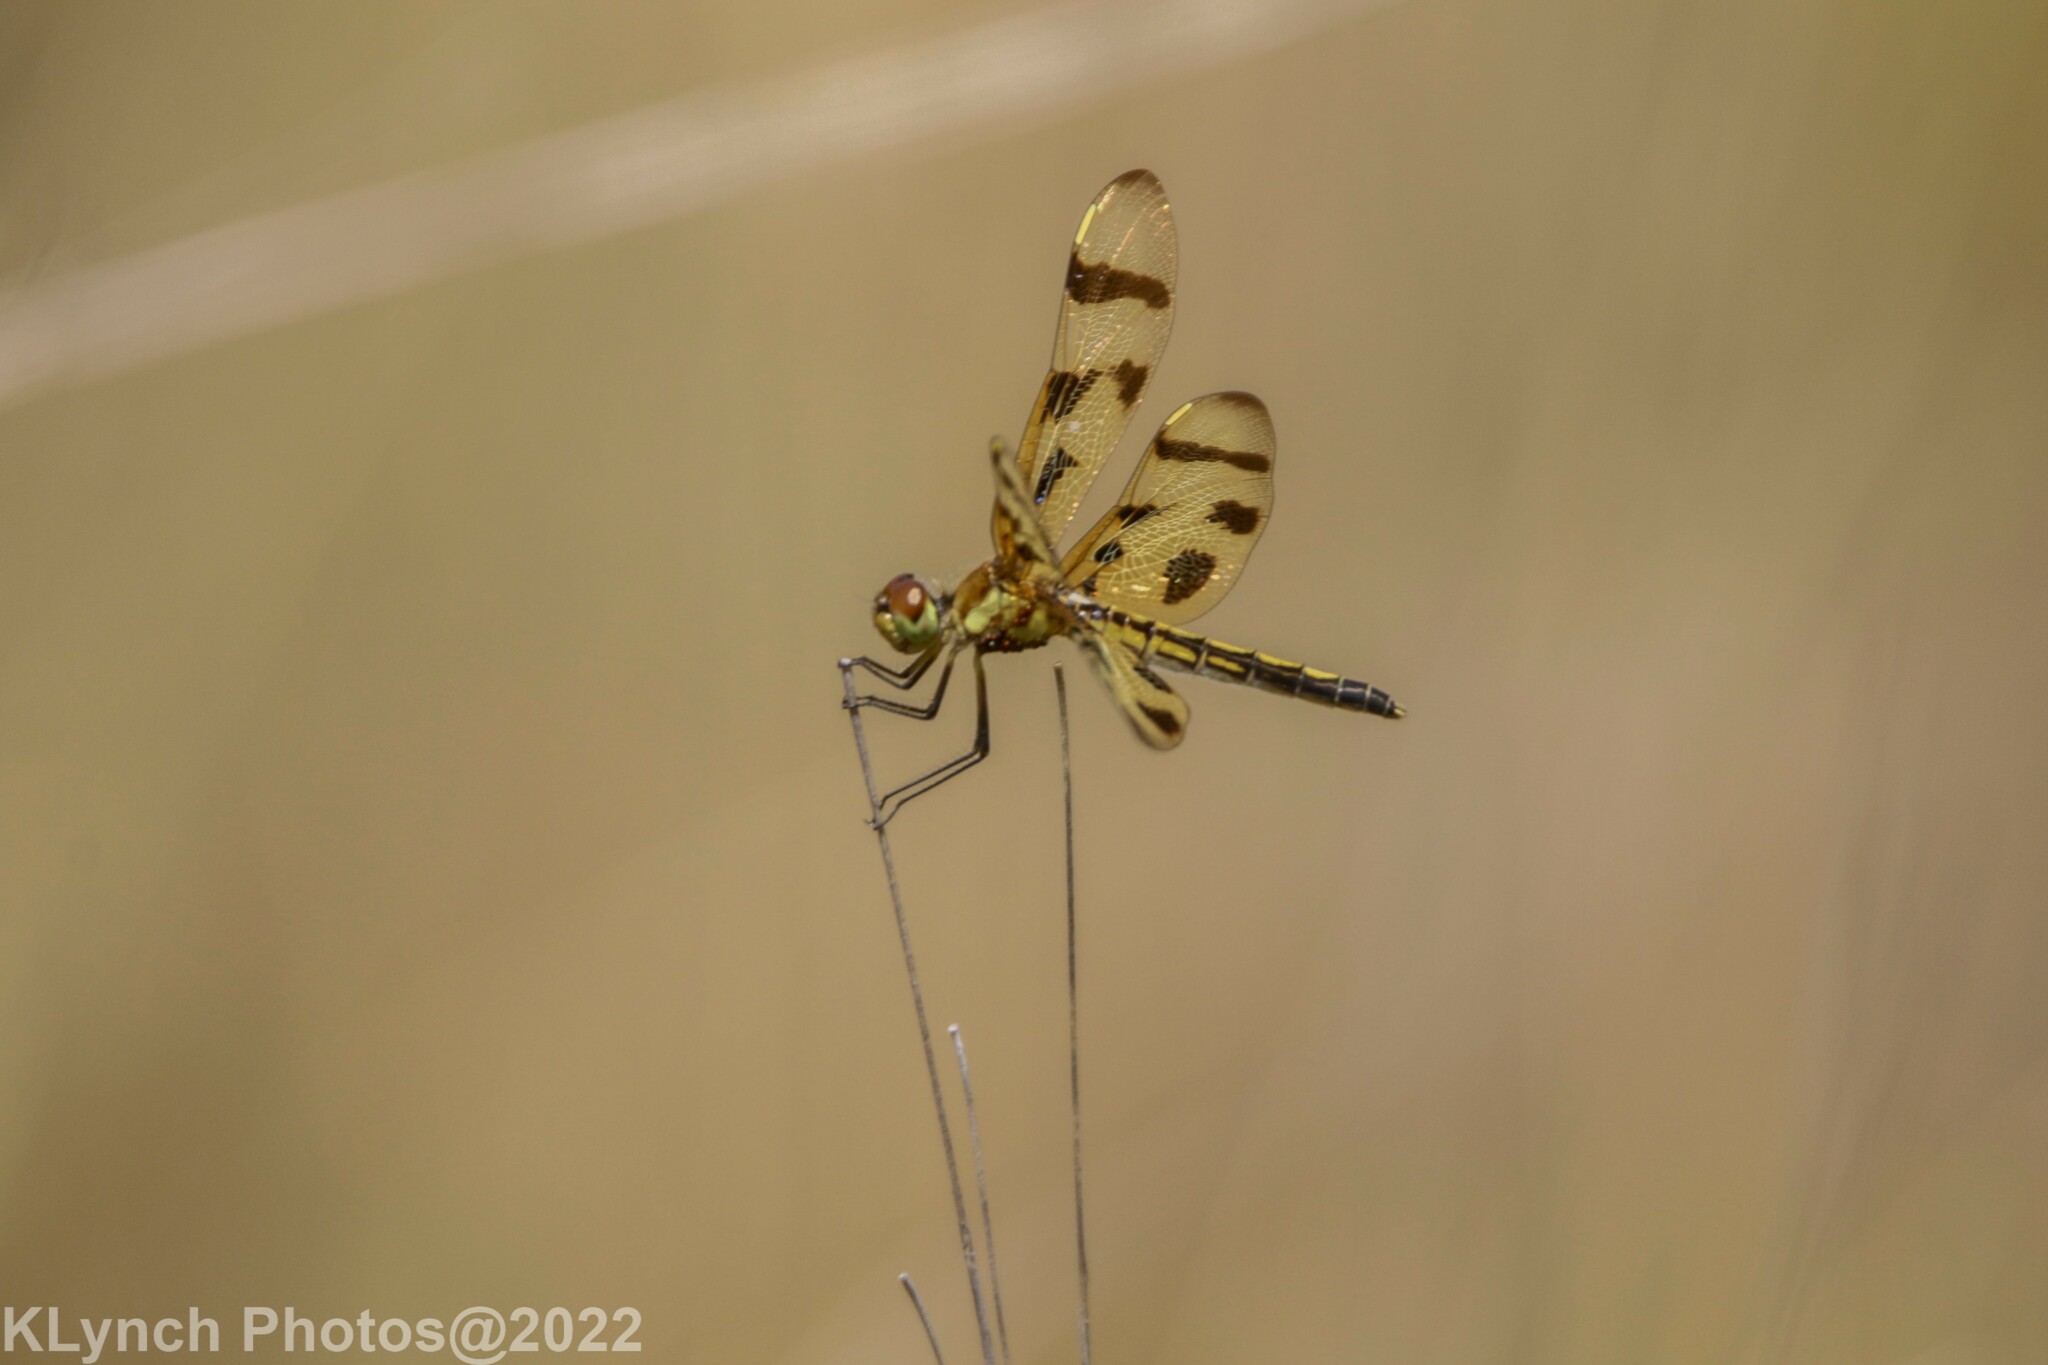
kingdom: Animalia
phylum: Arthropoda
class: Insecta
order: Odonata
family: Libellulidae
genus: Celithemis
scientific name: Celithemis eponina
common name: Halloween pennant
